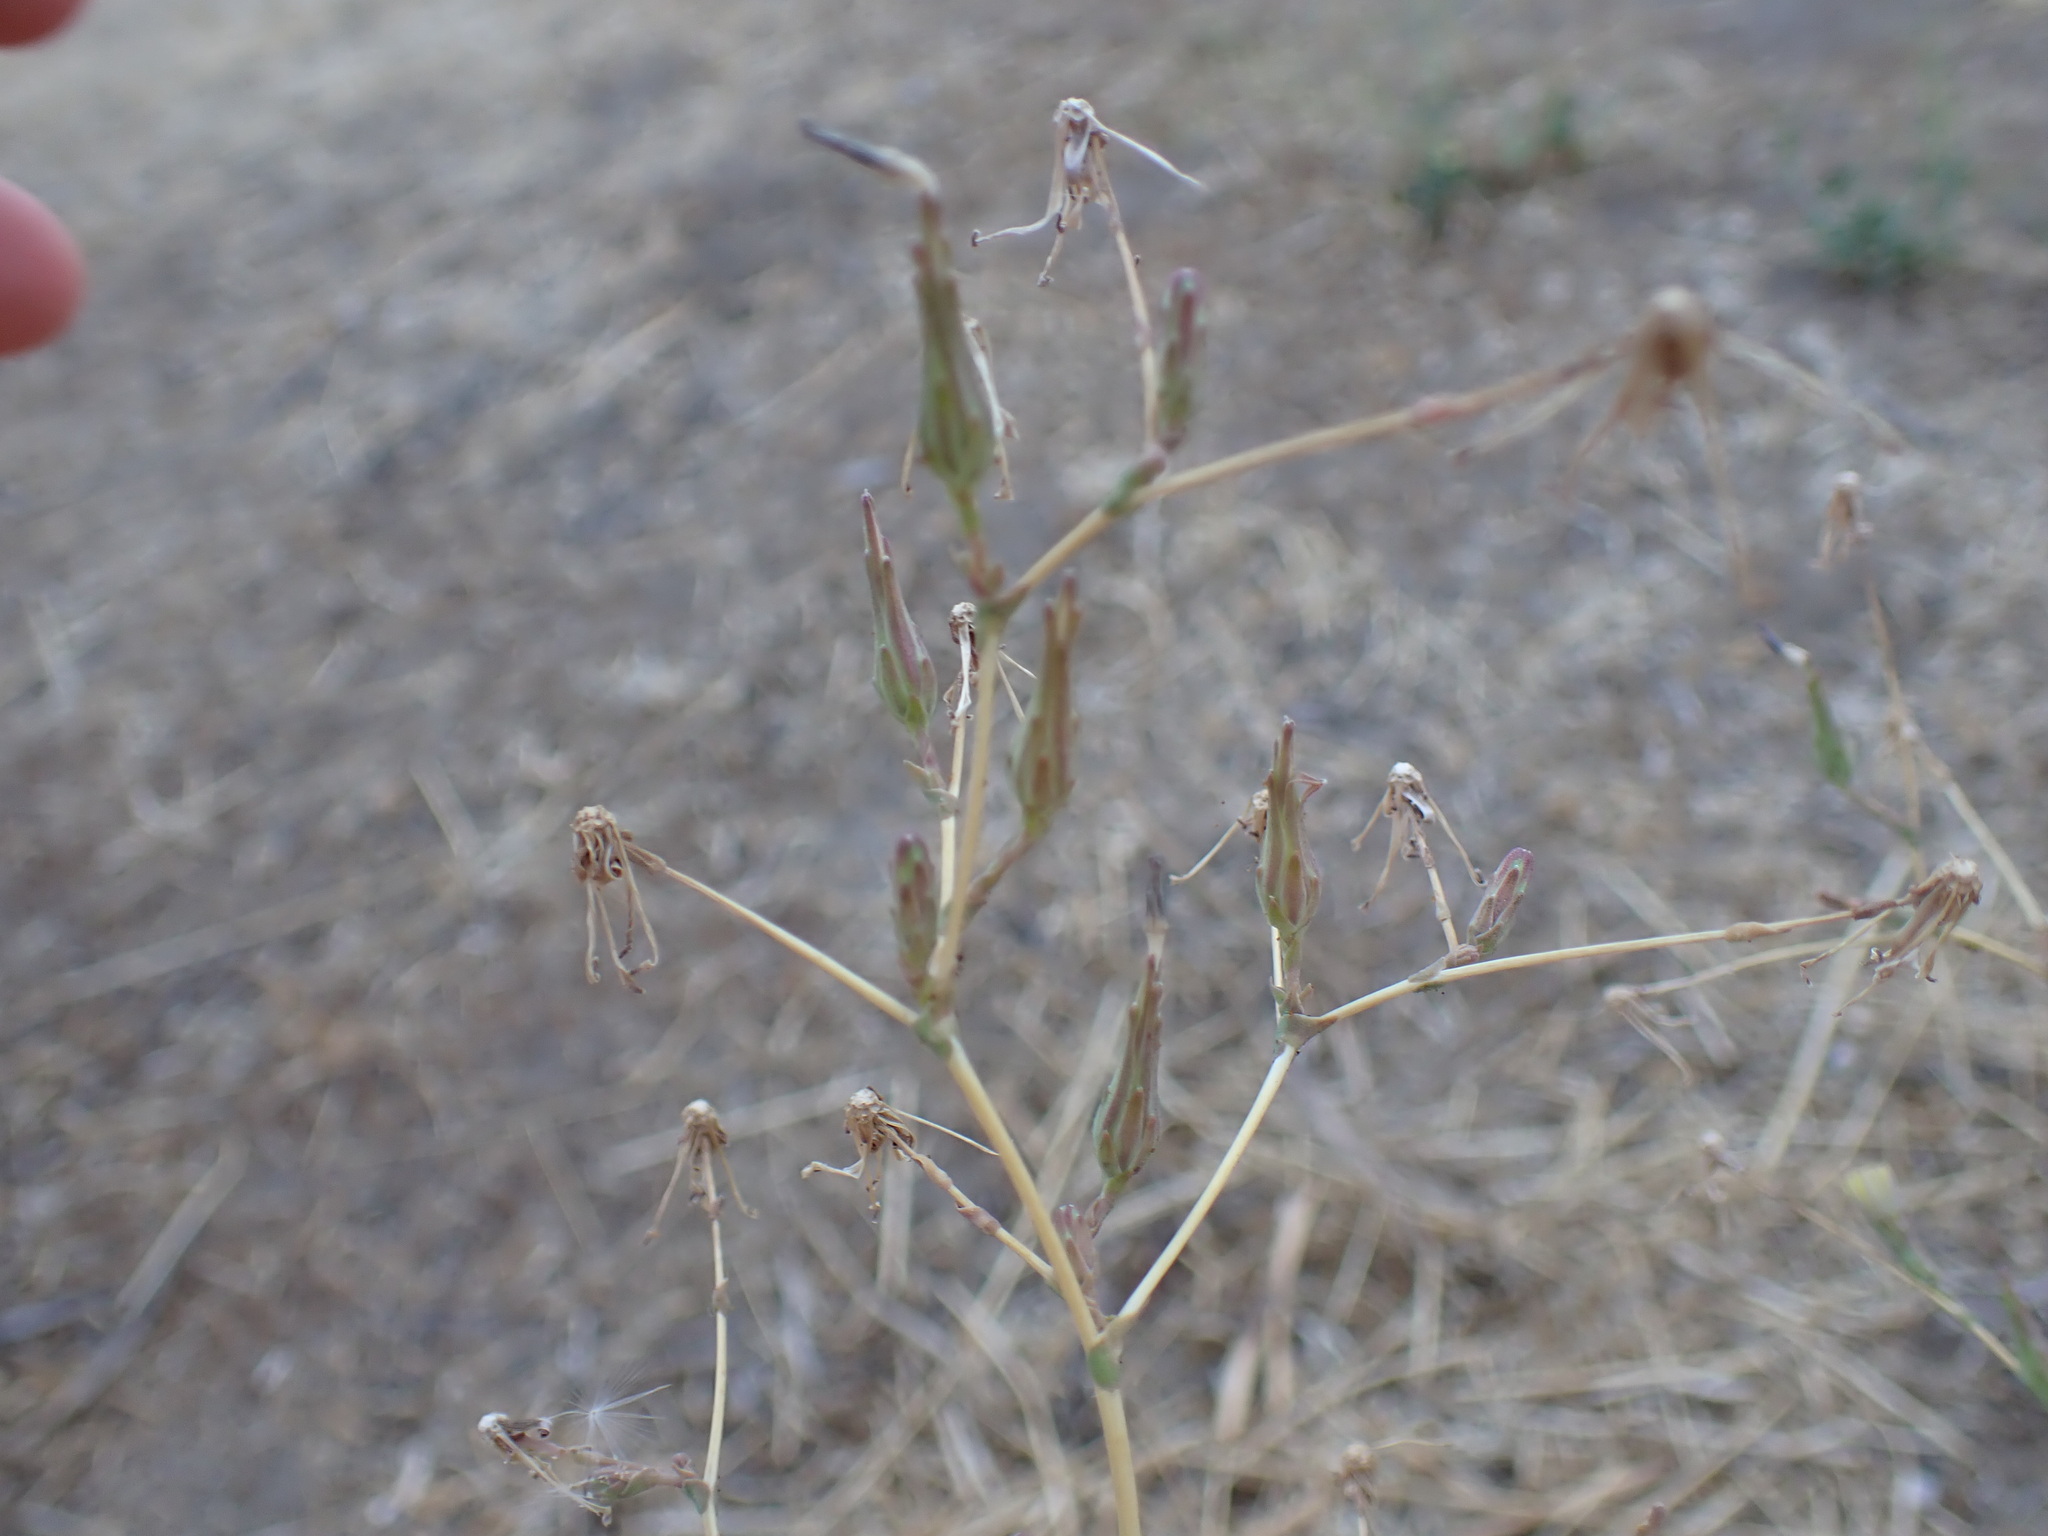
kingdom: Plantae
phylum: Tracheophyta
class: Magnoliopsida
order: Asterales
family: Asteraceae
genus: Lactuca
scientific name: Lactuca serriola
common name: Prickly lettuce
